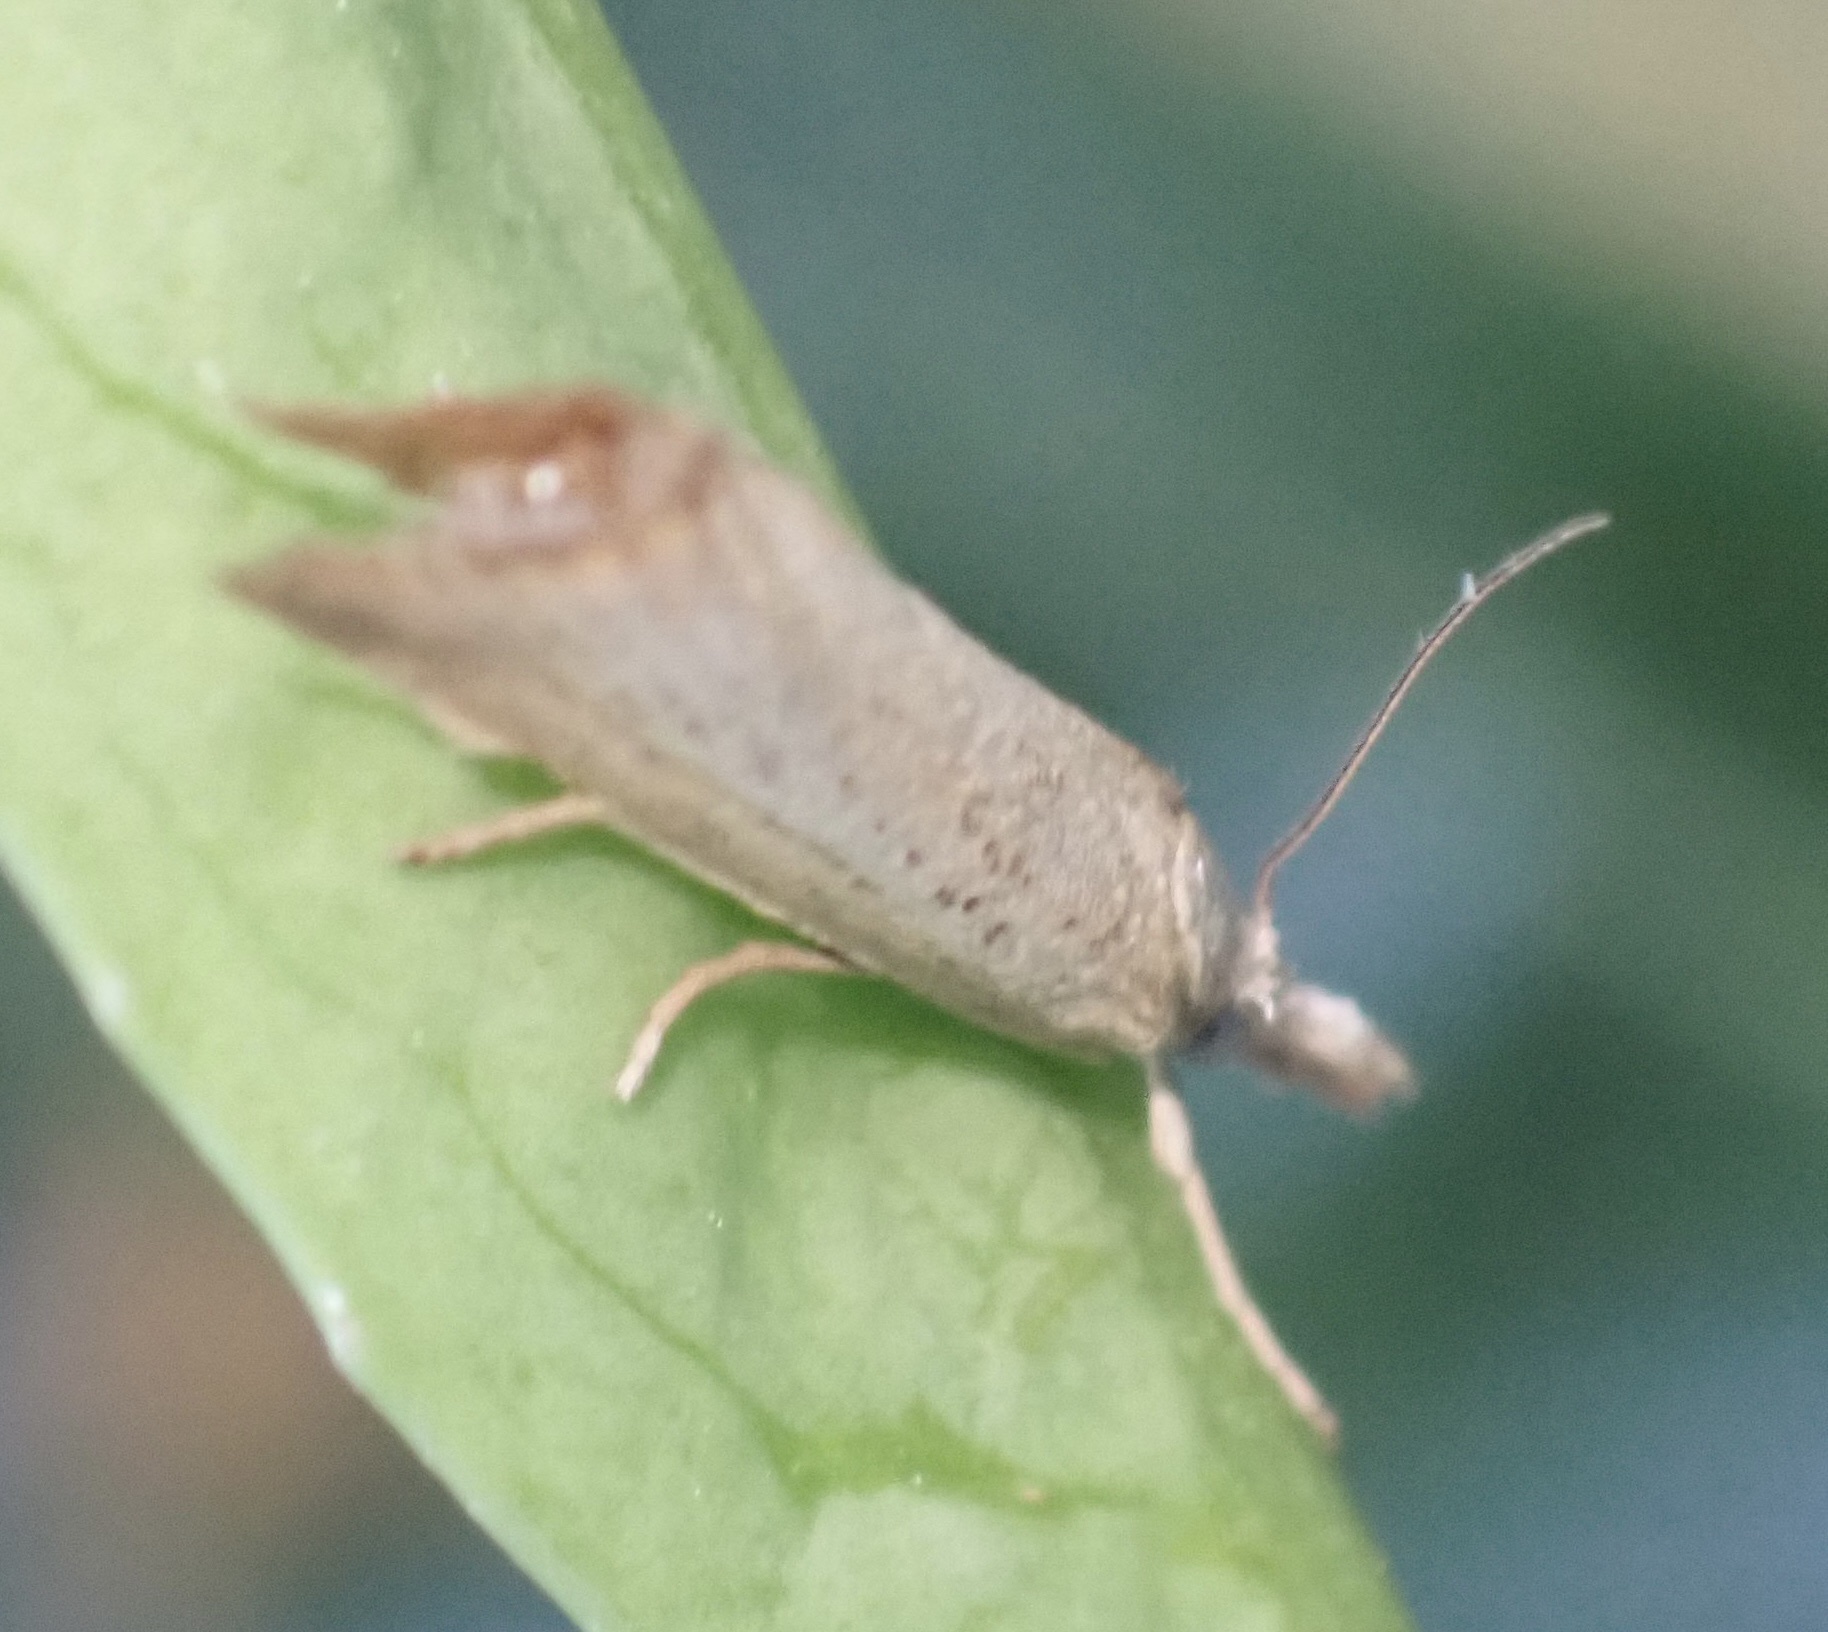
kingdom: Animalia
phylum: Arthropoda
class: Insecta
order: Lepidoptera
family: Crambidae
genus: Agriphila
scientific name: Agriphila straminella
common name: Straw grass-veneer
